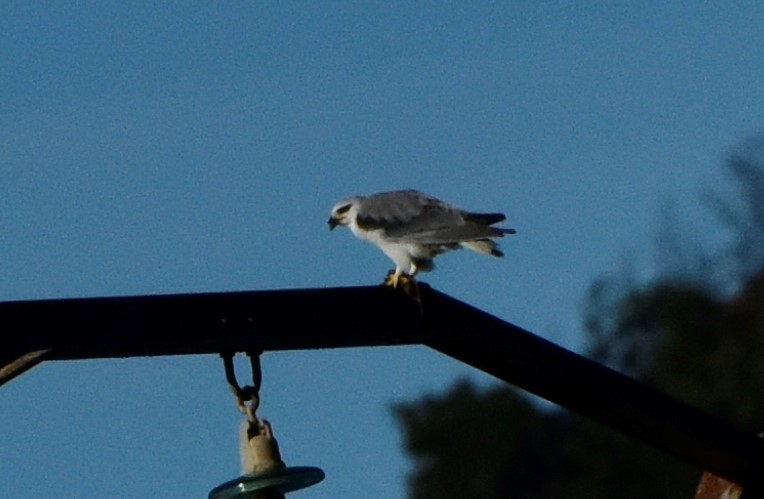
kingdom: Animalia
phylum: Chordata
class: Aves
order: Accipitriformes
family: Accipitridae
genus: Elanus
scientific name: Elanus caeruleus
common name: Black-winged kite
